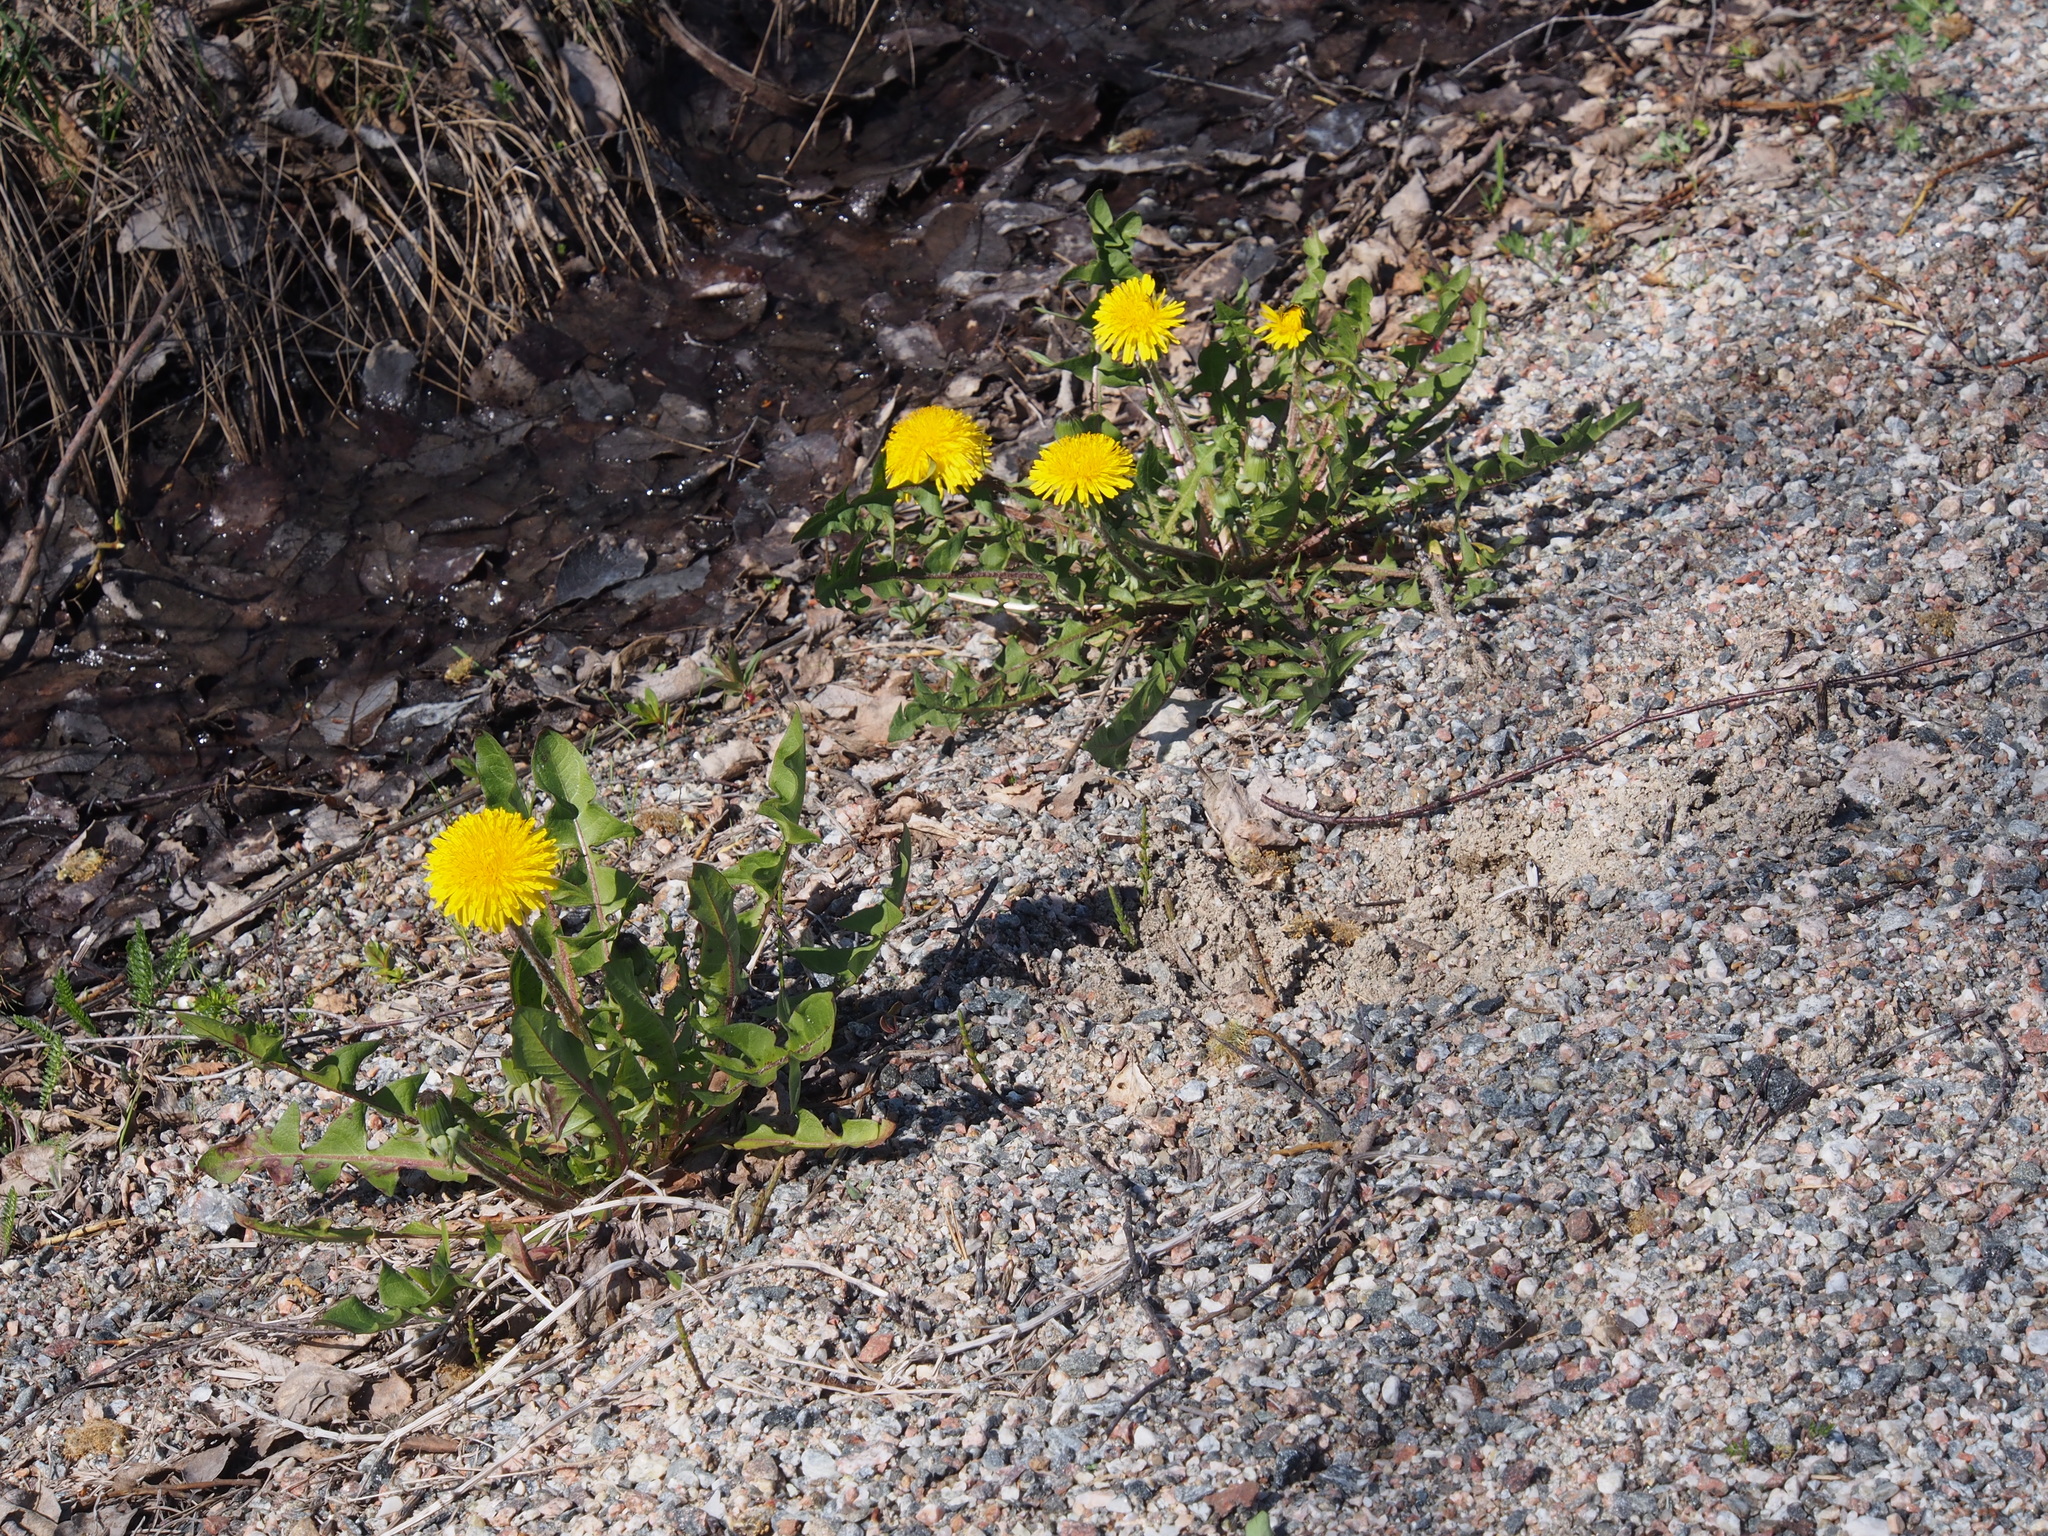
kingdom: Plantae
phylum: Tracheophyta
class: Magnoliopsida
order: Asterales
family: Asteraceae
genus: Taraxacum
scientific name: Taraxacum officinale
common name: Common dandelion
